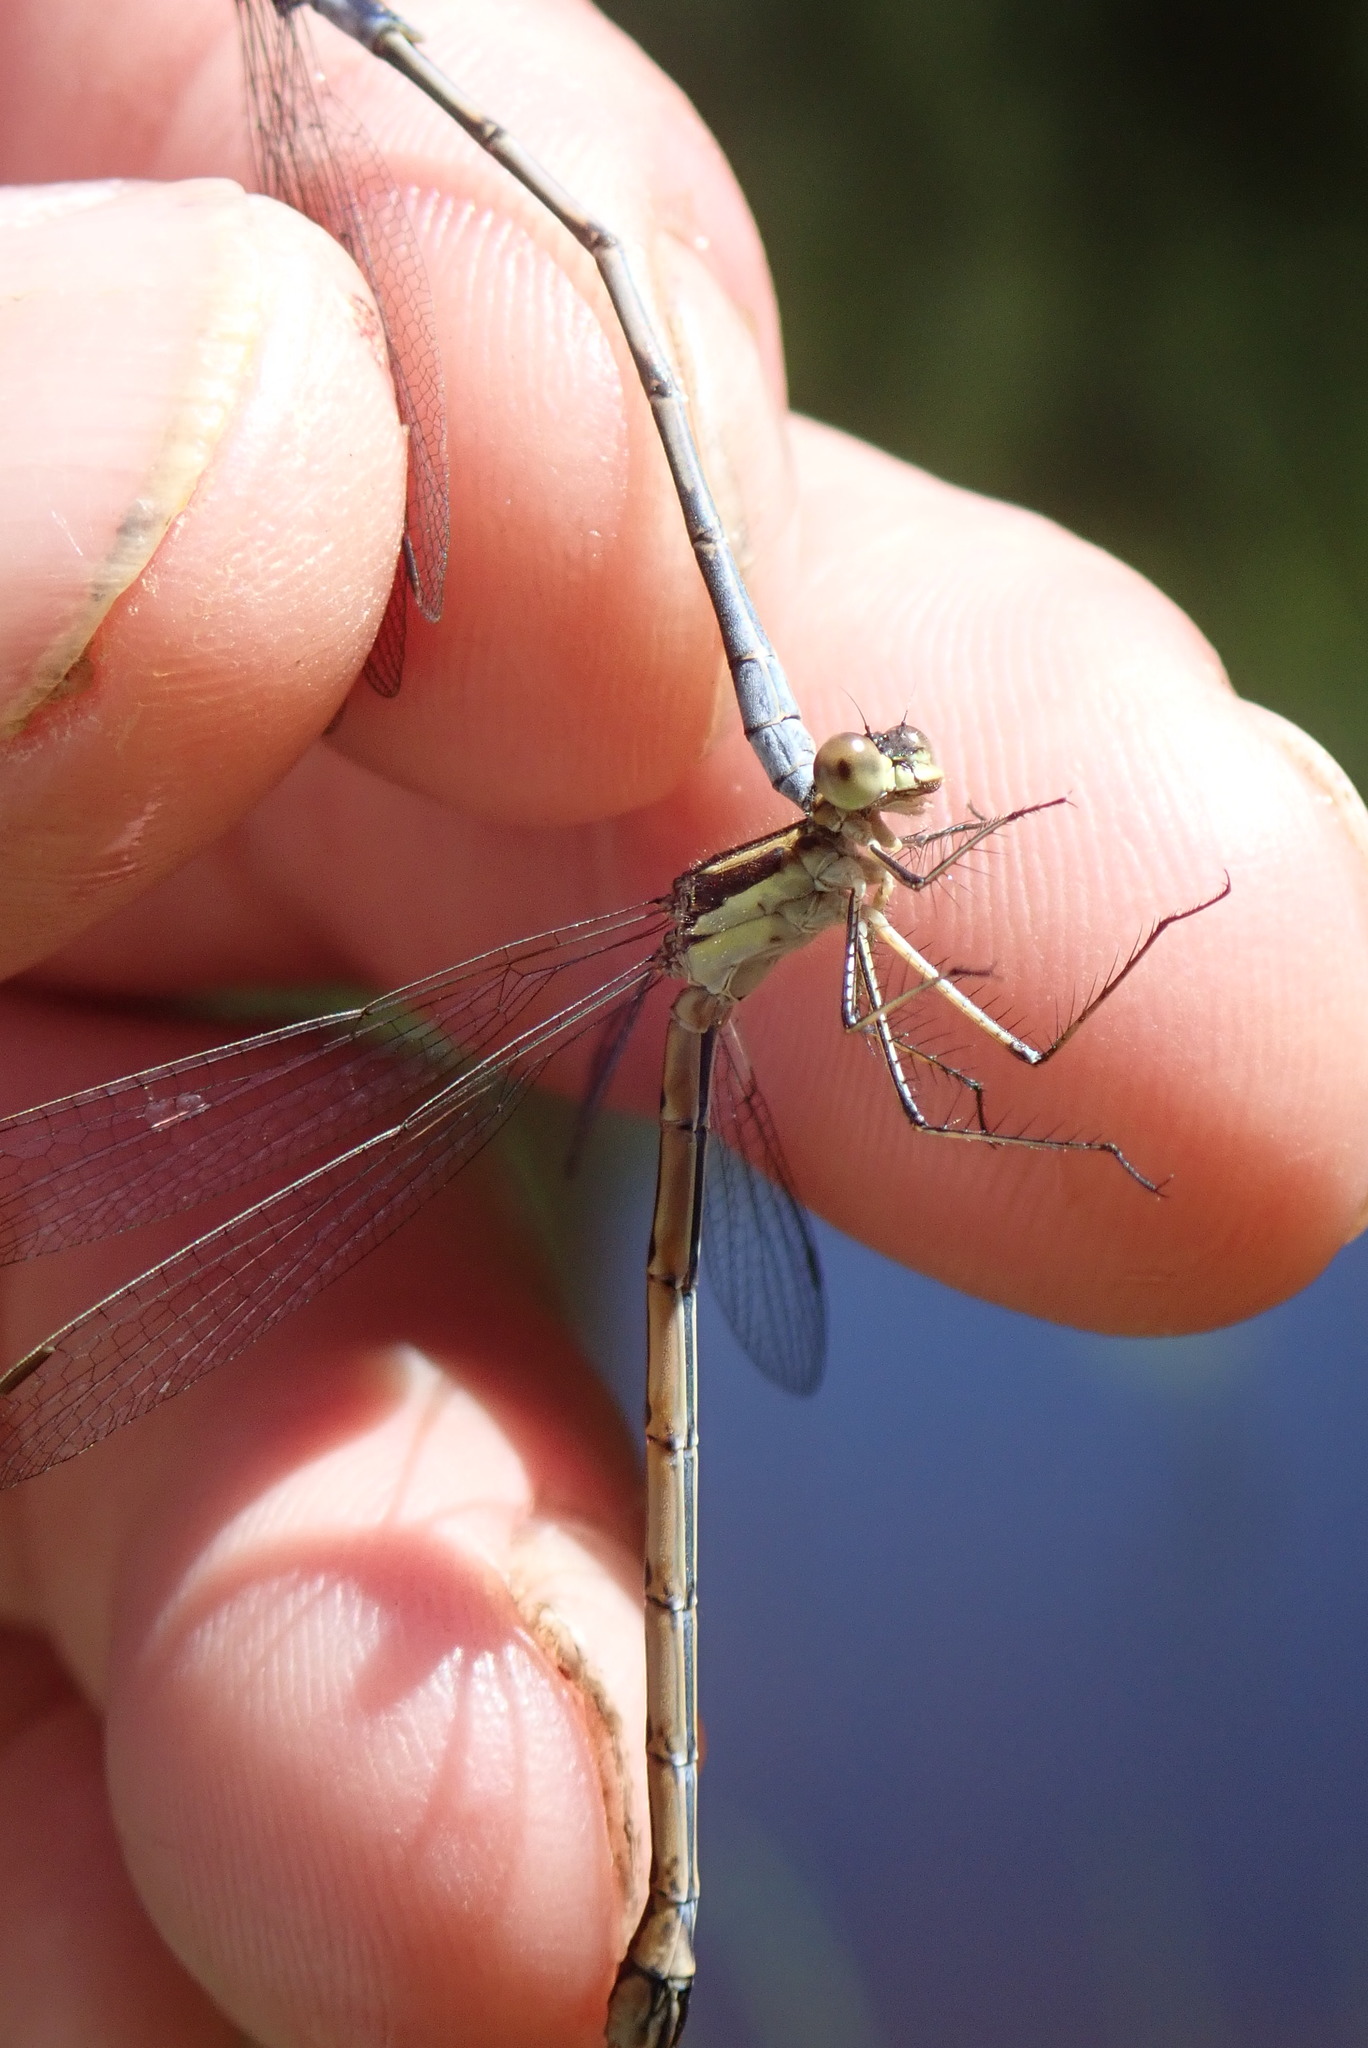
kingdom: Animalia
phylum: Arthropoda
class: Insecta
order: Odonata
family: Lestidae
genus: Lestes
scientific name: Lestes disjunctus
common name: Northern spreadwing
